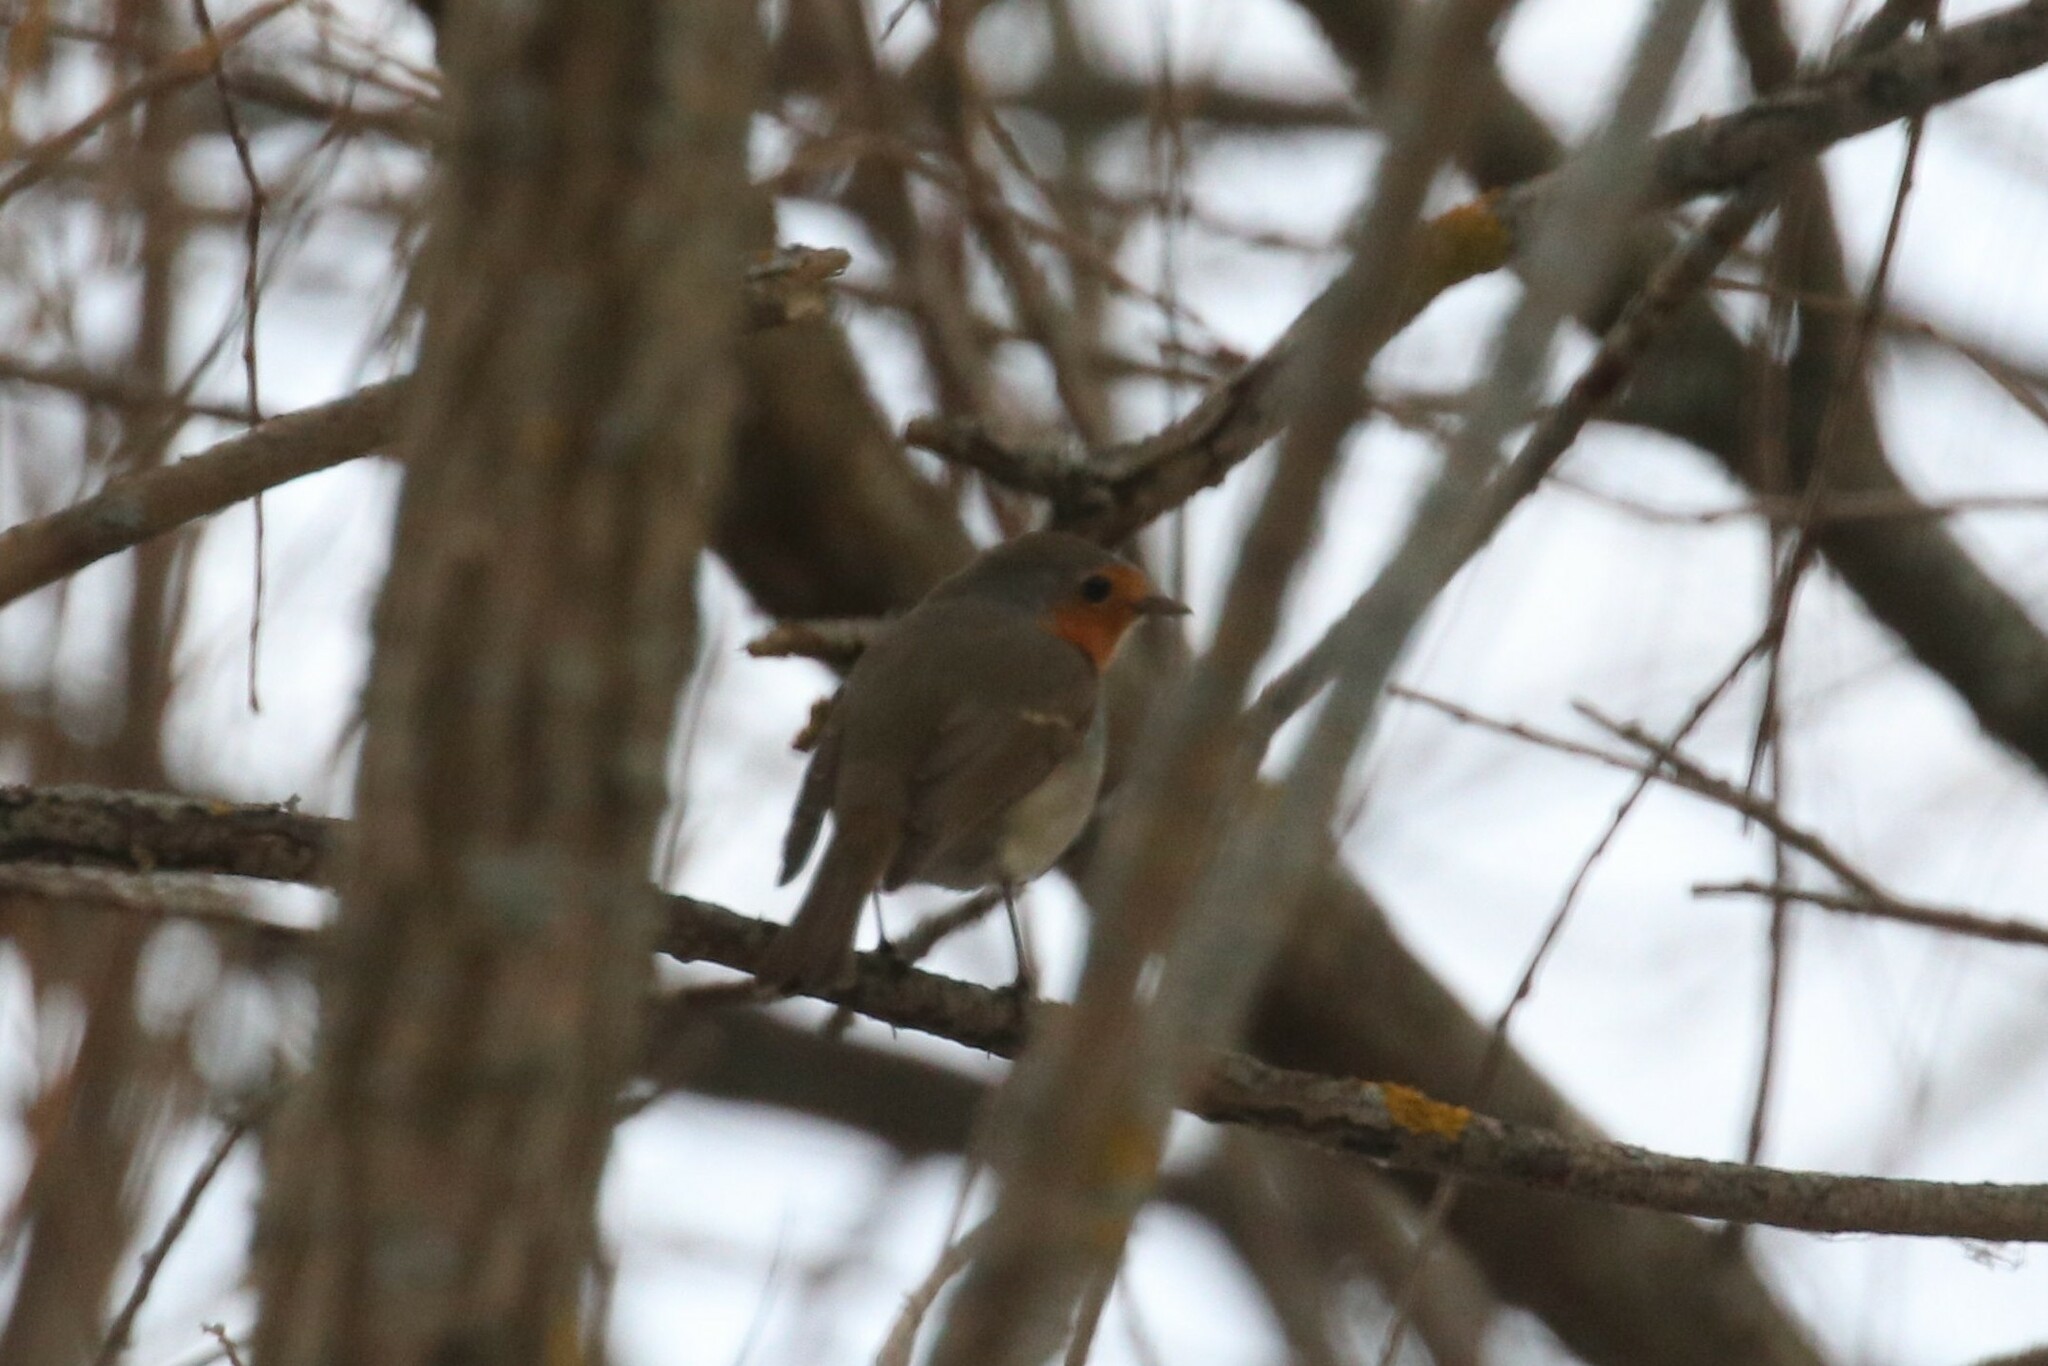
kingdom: Animalia
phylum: Chordata
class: Aves
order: Passeriformes
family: Muscicapidae
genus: Erithacus
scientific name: Erithacus rubecula
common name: European robin
